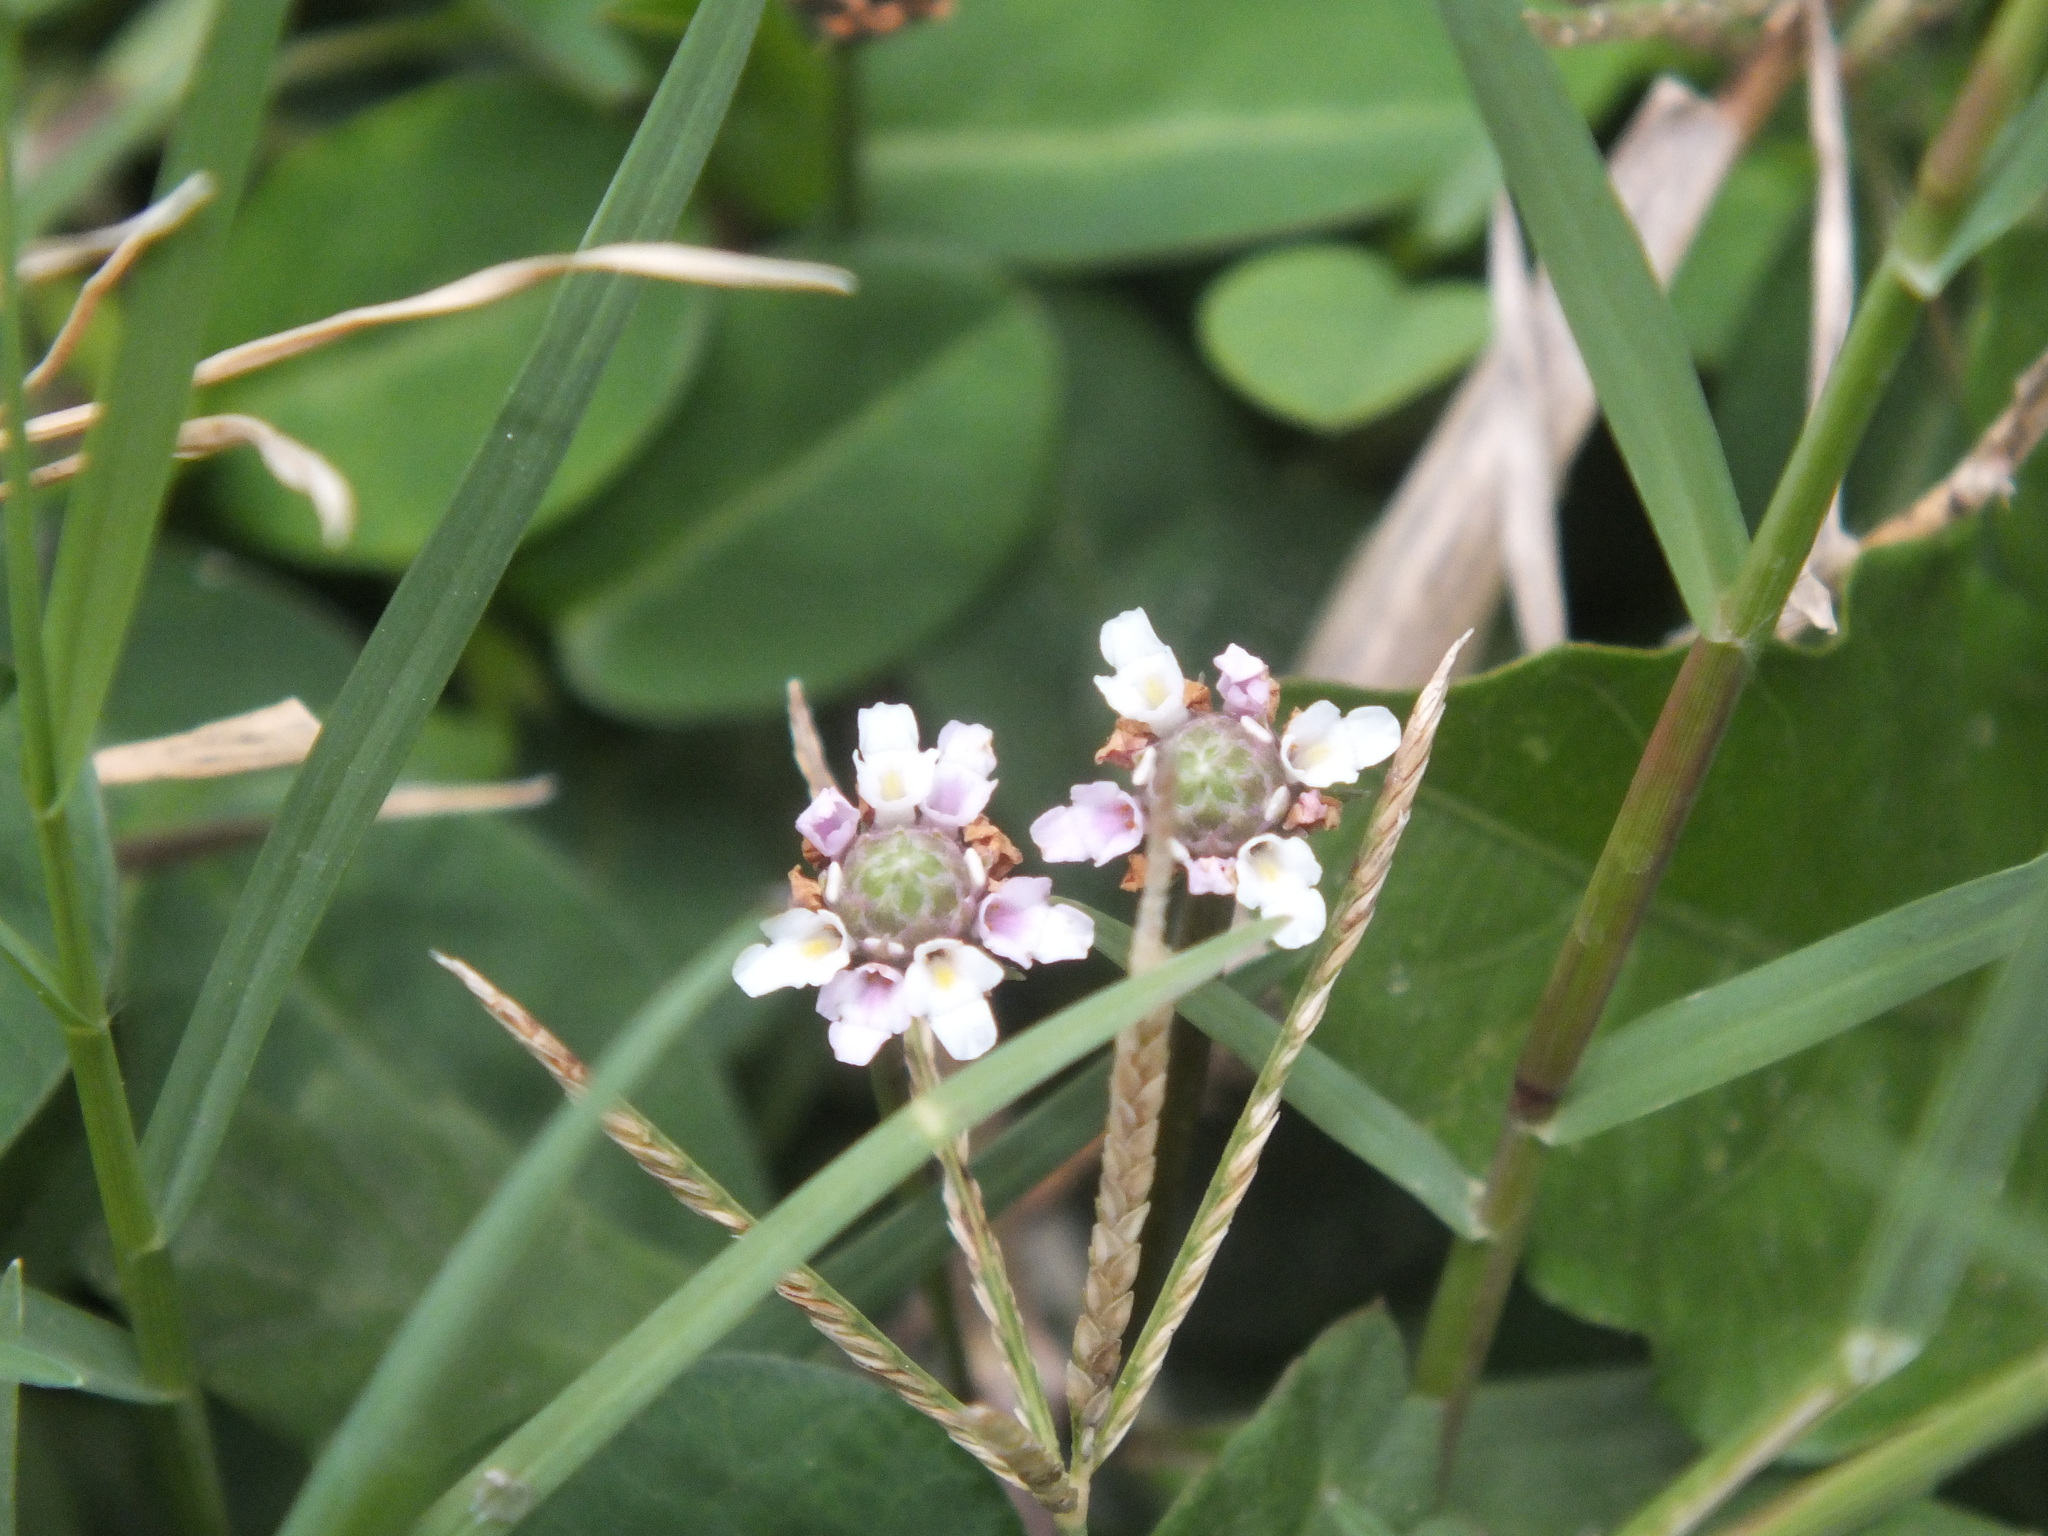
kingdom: Plantae
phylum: Tracheophyta
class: Magnoliopsida
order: Lamiales
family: Verbenaceae
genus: Phyla
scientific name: Phyla nodiflora
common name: Frogfruit
